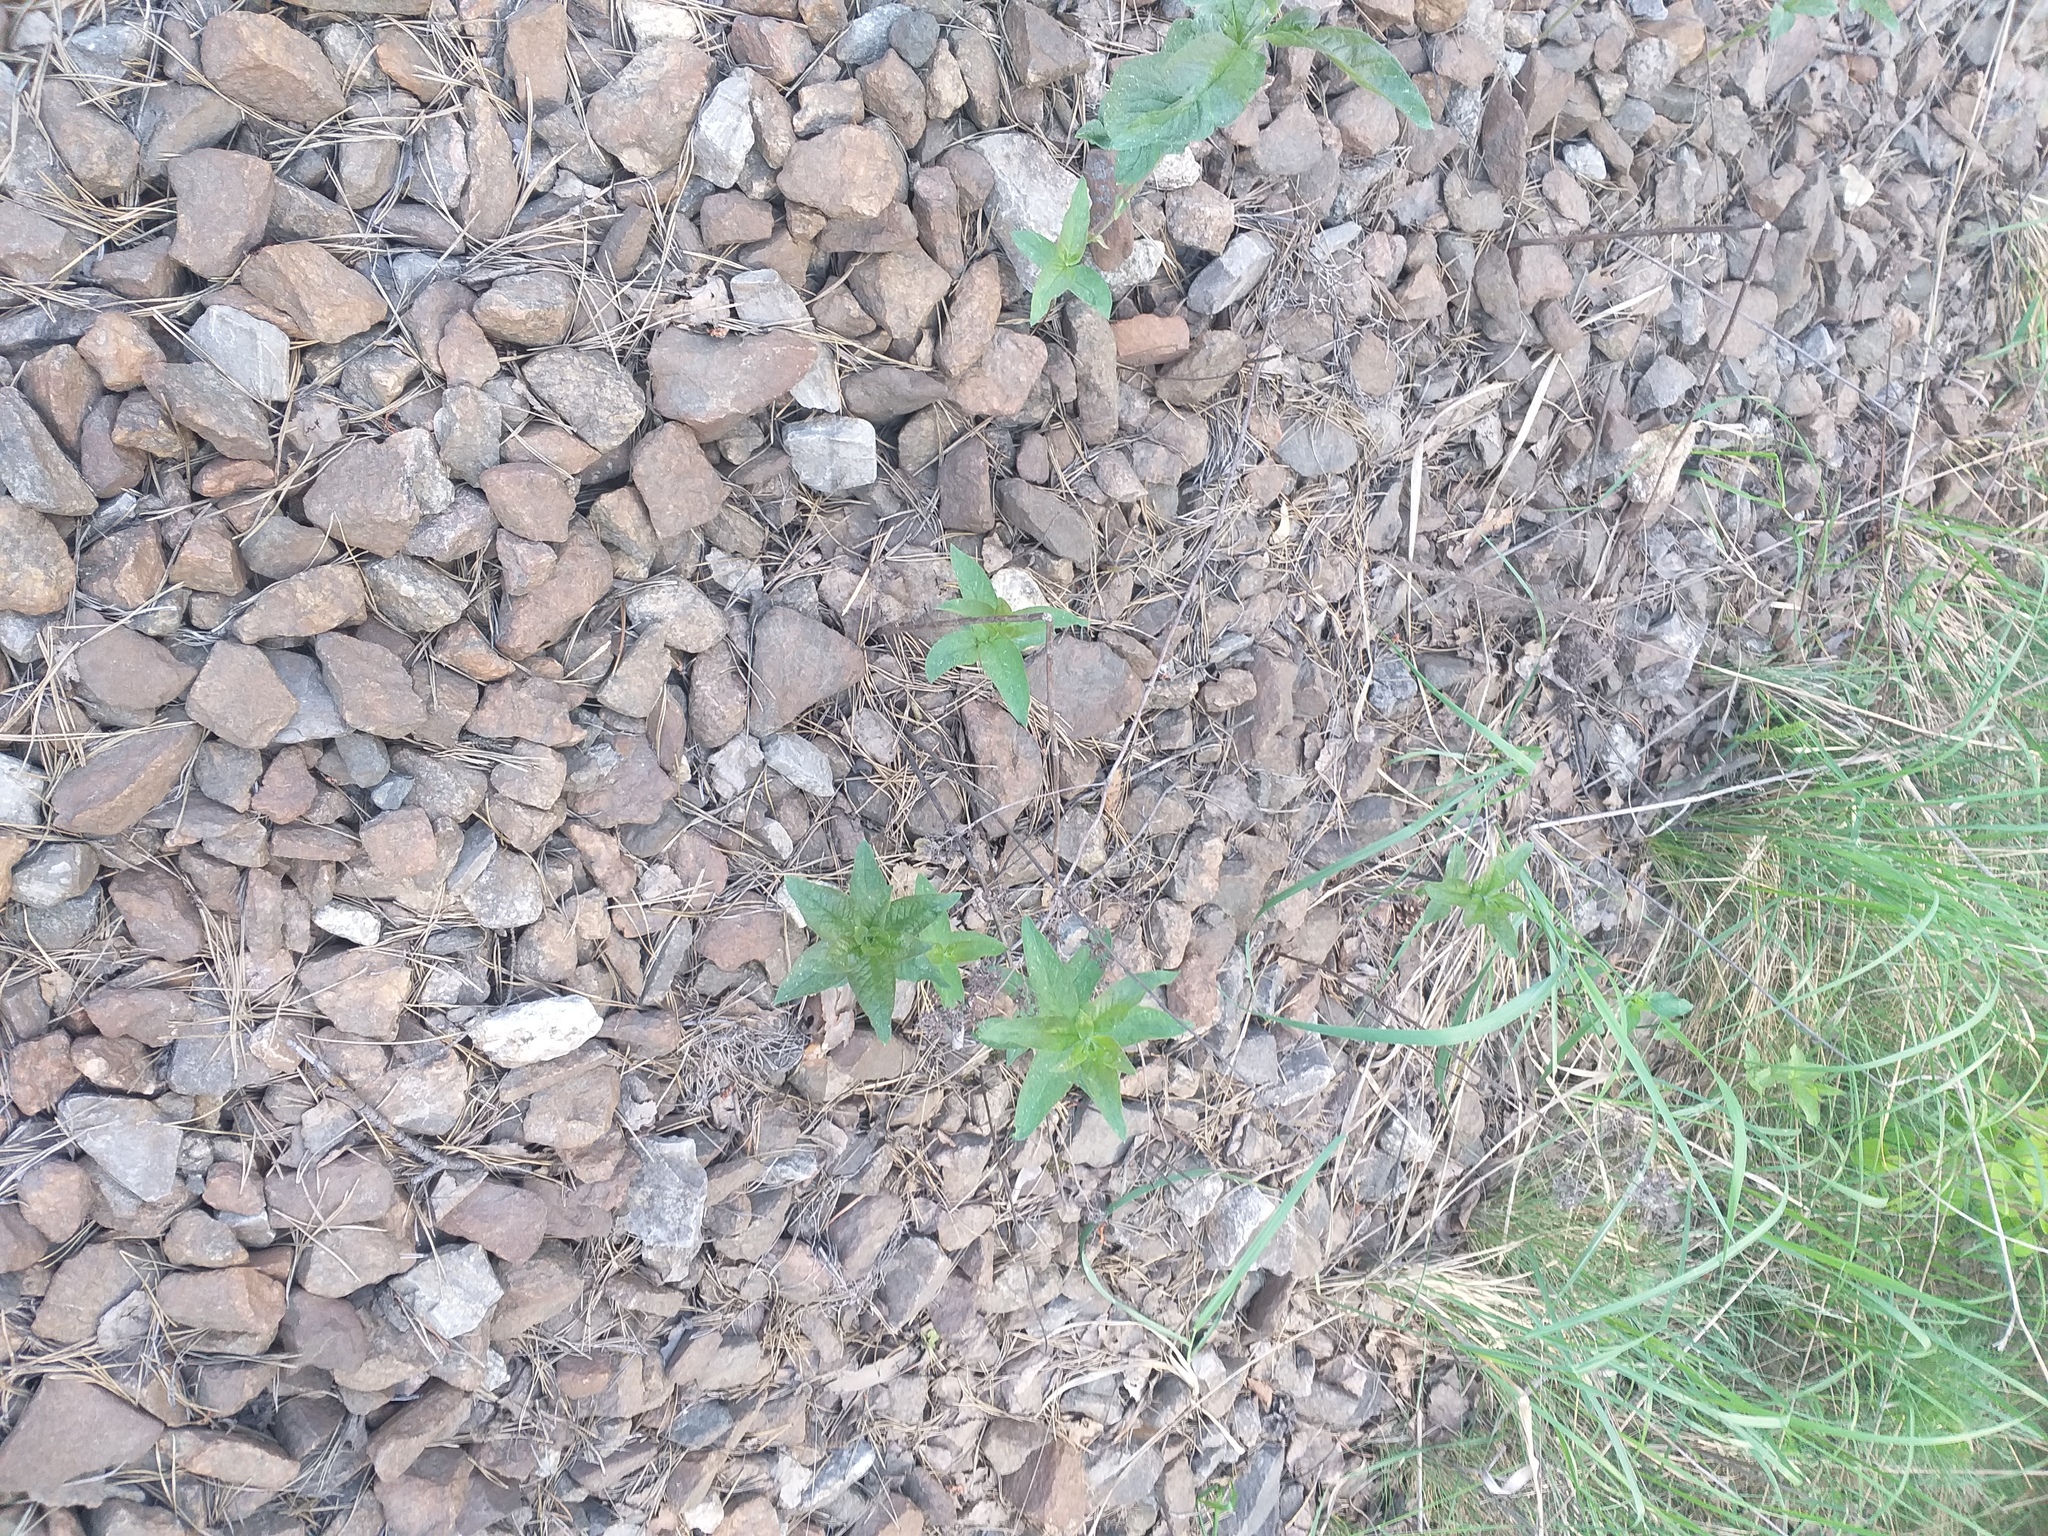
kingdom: Plantae
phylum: Tracheophyta
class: Magnoliopsida
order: Ericales
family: Primulaceae
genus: Lysimachia
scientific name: Lysimachia vulgaris
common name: Yellow loosestrife
